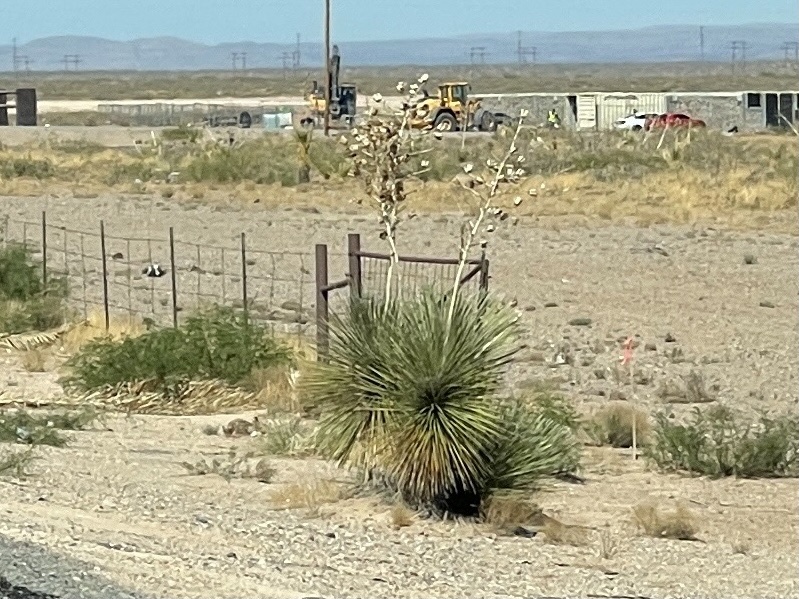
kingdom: Plantae
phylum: Tracheophyta
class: Liliopsida
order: Asparagales
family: Asparagaceae
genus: Yucca
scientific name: Yucca elata
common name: Palmella
